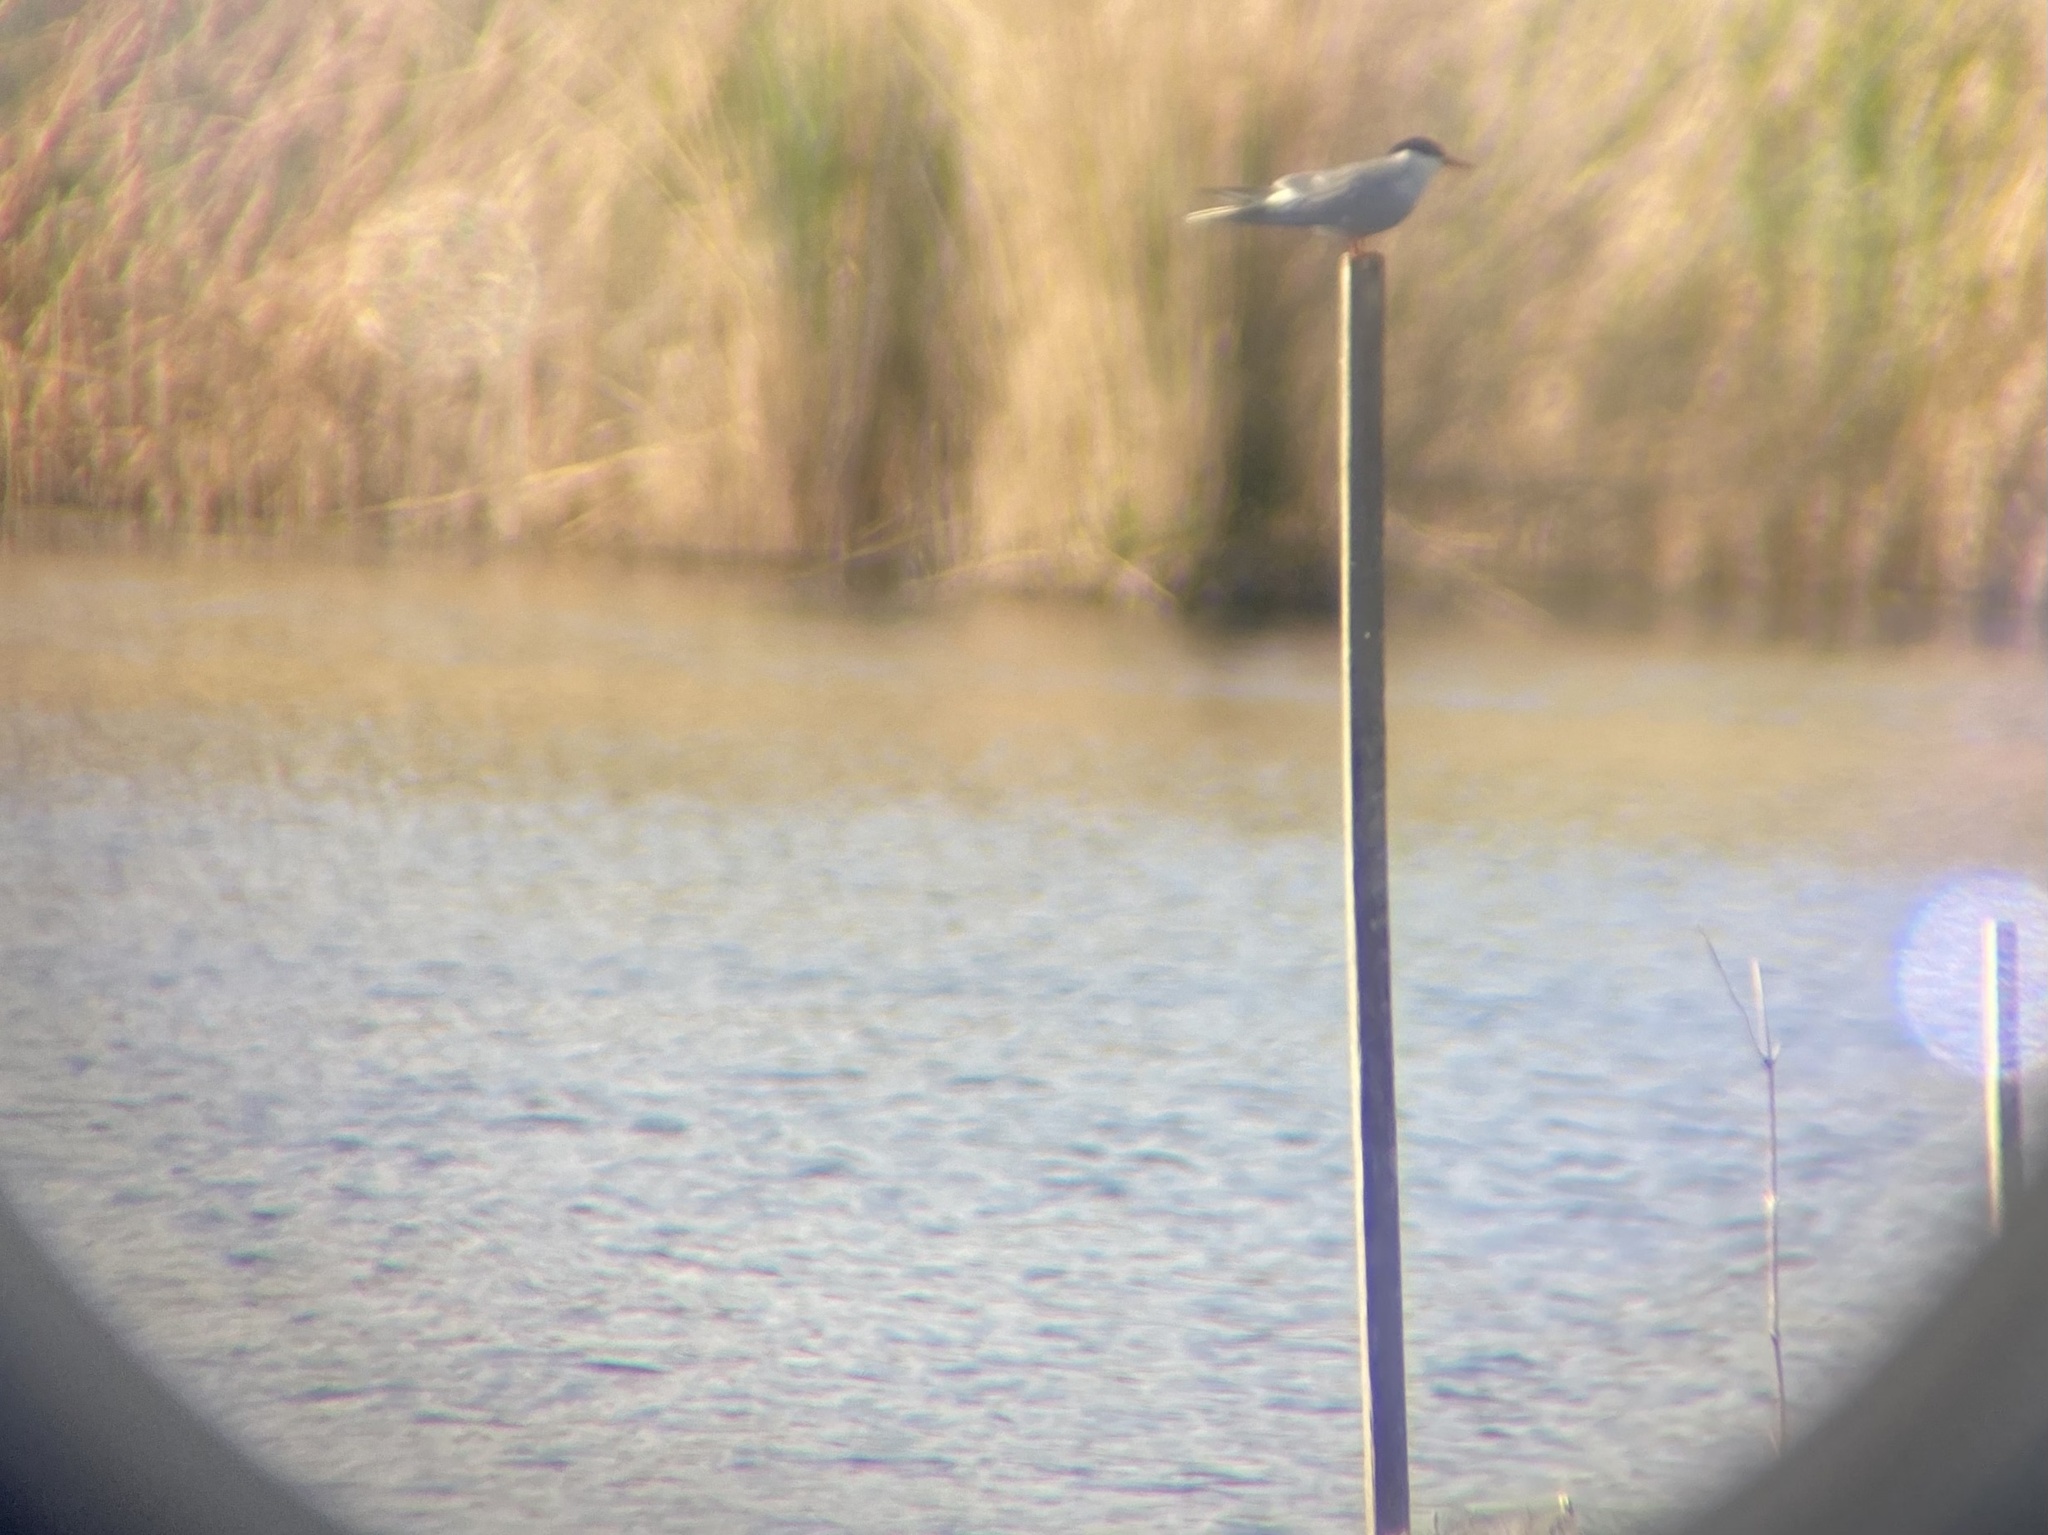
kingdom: Animalia
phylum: Chordata
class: Aves
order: Charadriiformes
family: Laridae
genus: Sterna
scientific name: Sterna hirundo
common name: Common tern
